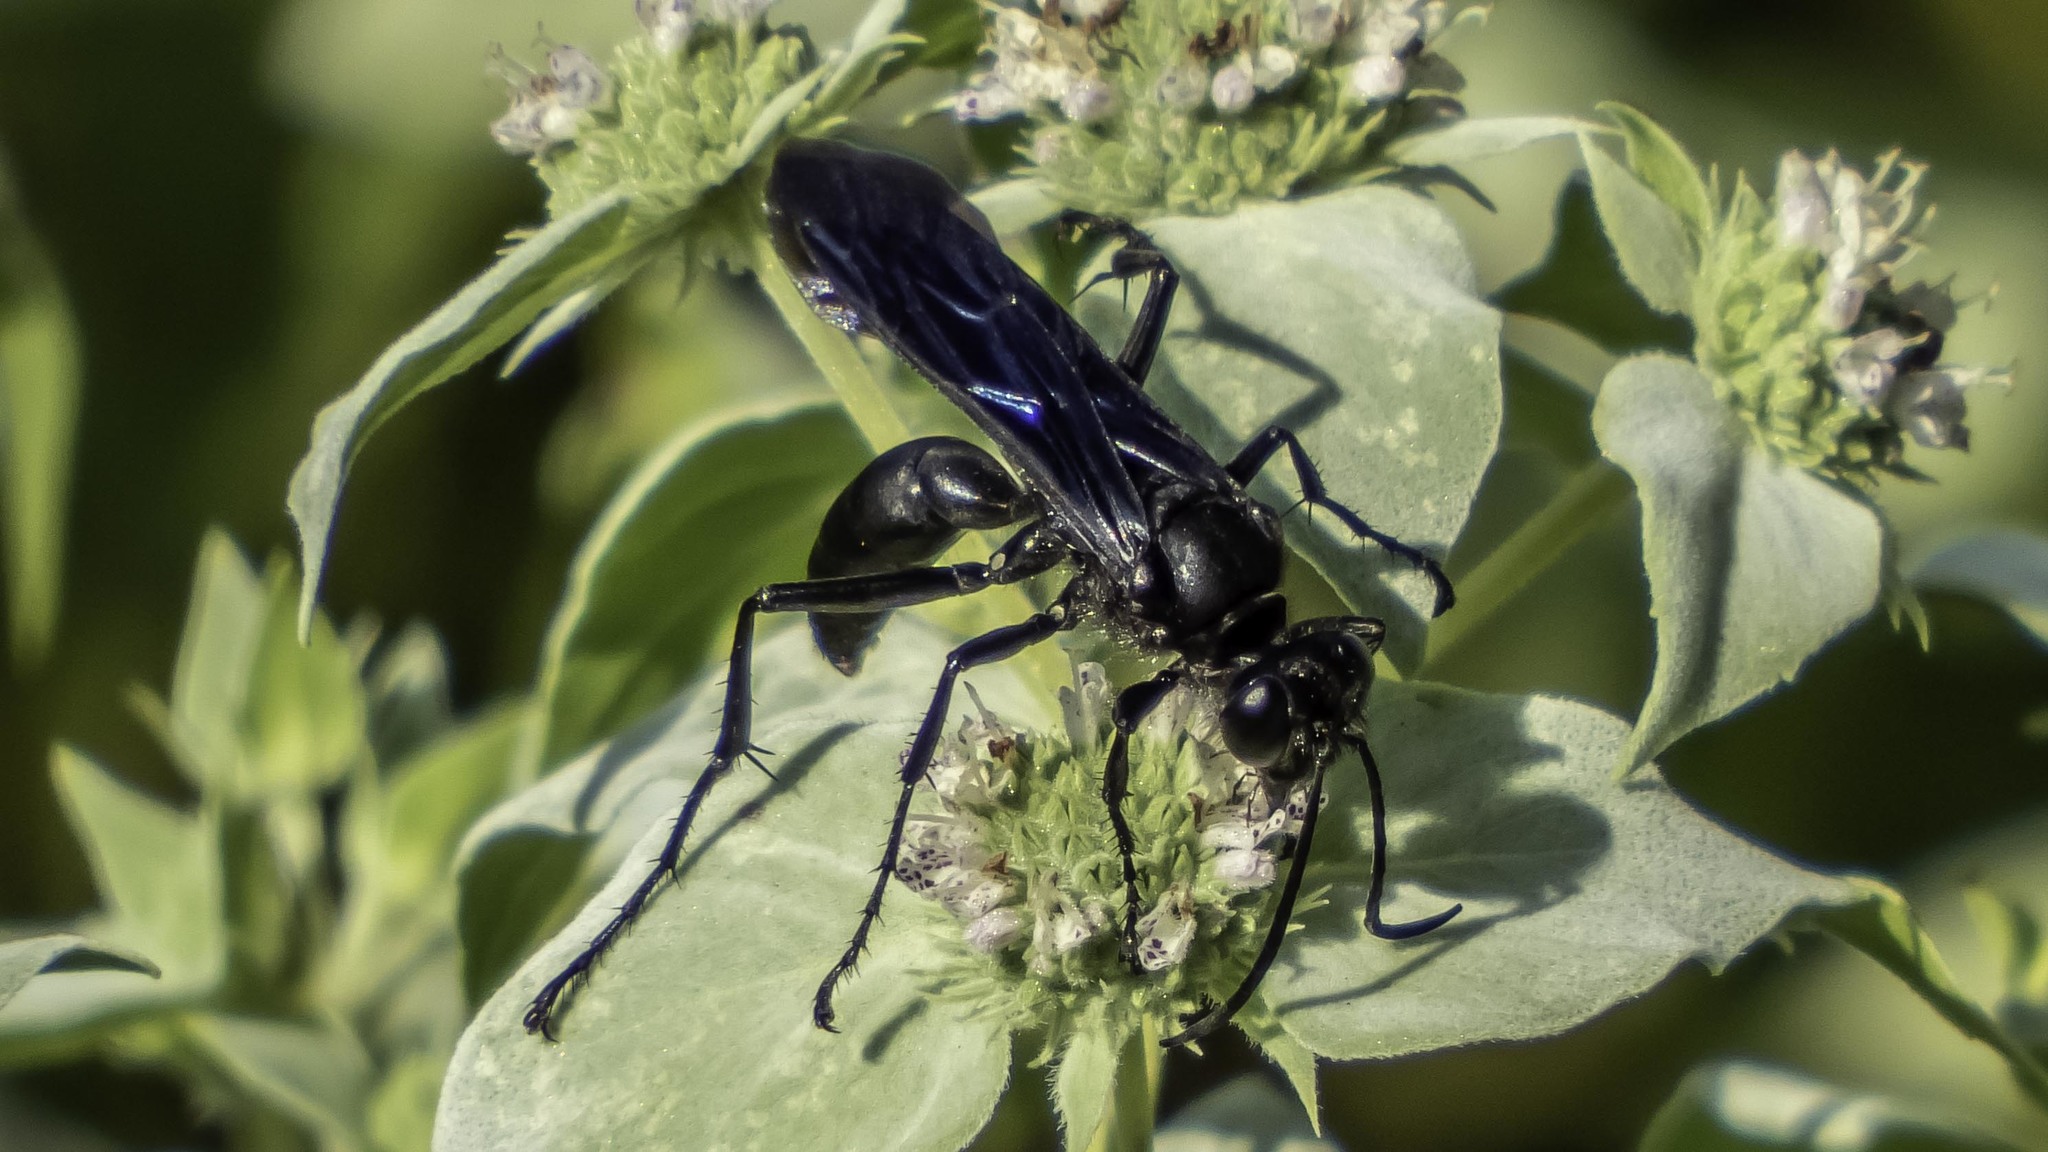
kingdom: Animalia
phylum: Arthropoda
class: Insecta
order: Hymenoptera
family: Sphecidae
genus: Sphex
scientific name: Sphex pensylvanicus
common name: Great black digger wasp
